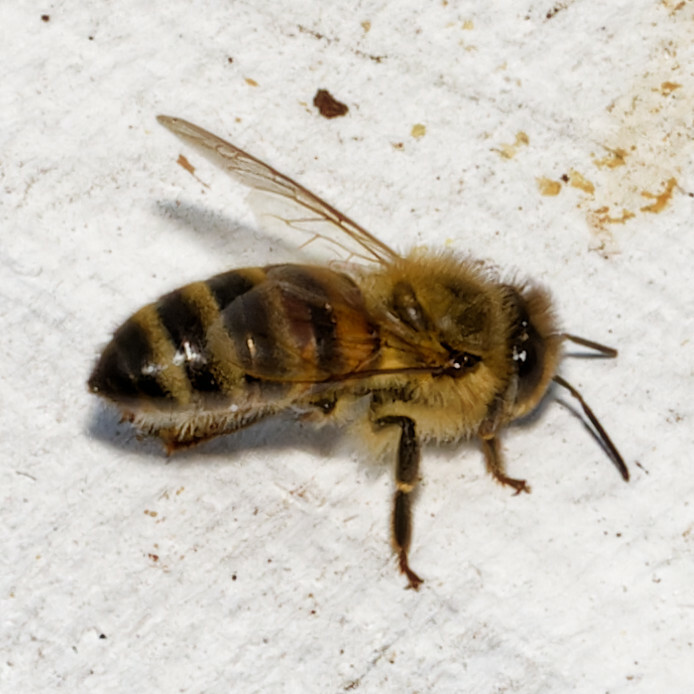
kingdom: Animalia
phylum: Arthropoda
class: Insecta
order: Hymenoptera
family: Apidae
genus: Apis
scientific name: Apis mellifera
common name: Honey bee
